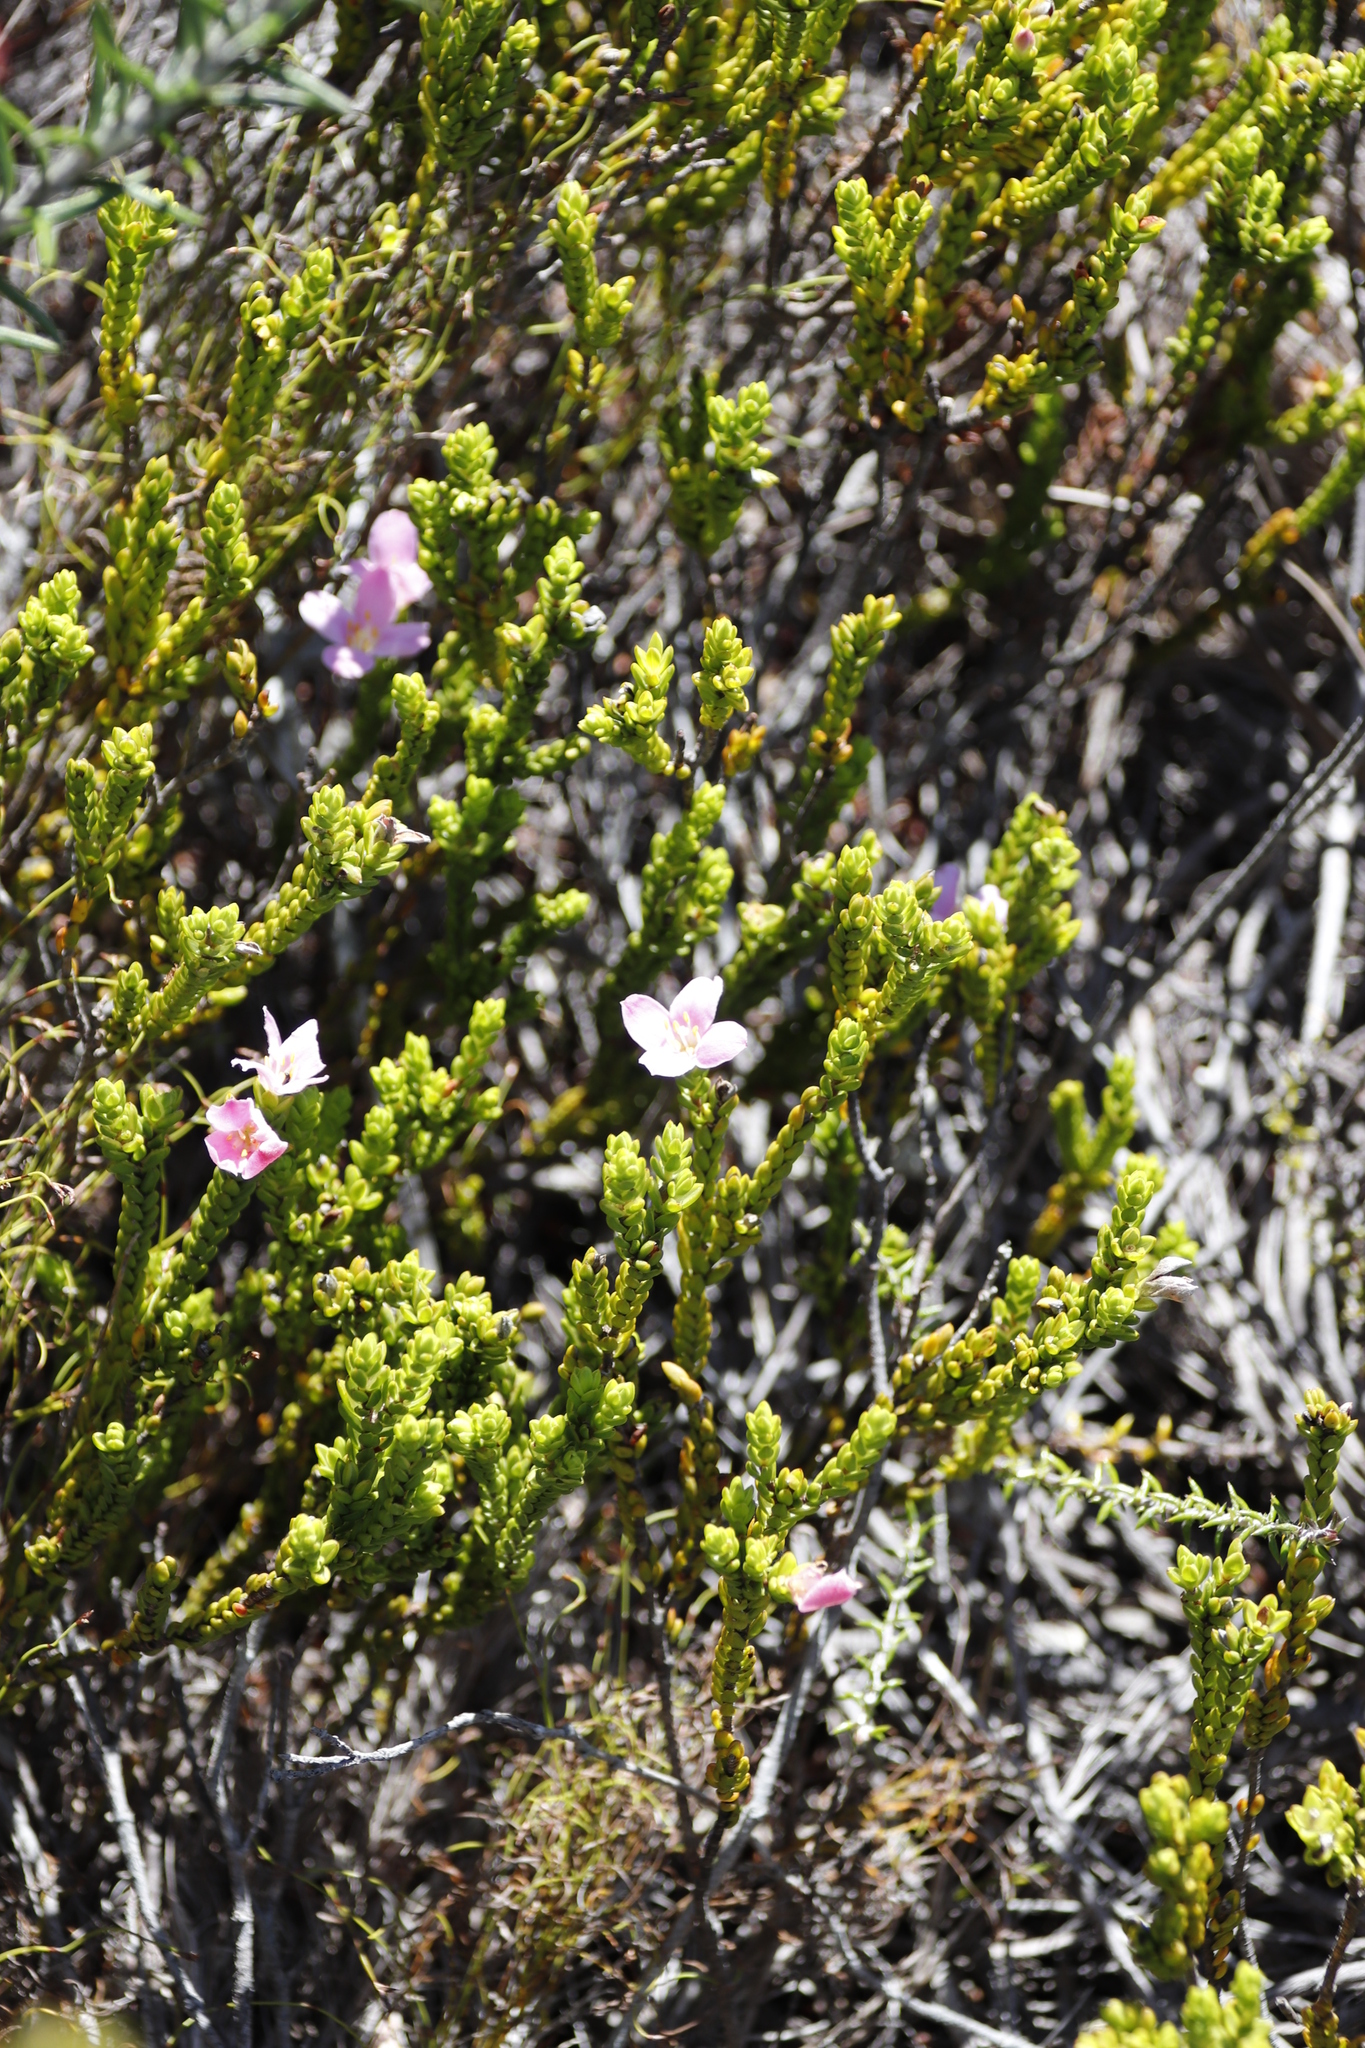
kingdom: Plantae
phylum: Tracheophyta
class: Magnoliopsida
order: Malvales
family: Thymelaeaceae
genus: Lachnaea
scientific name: Lachnaea grandiflora
